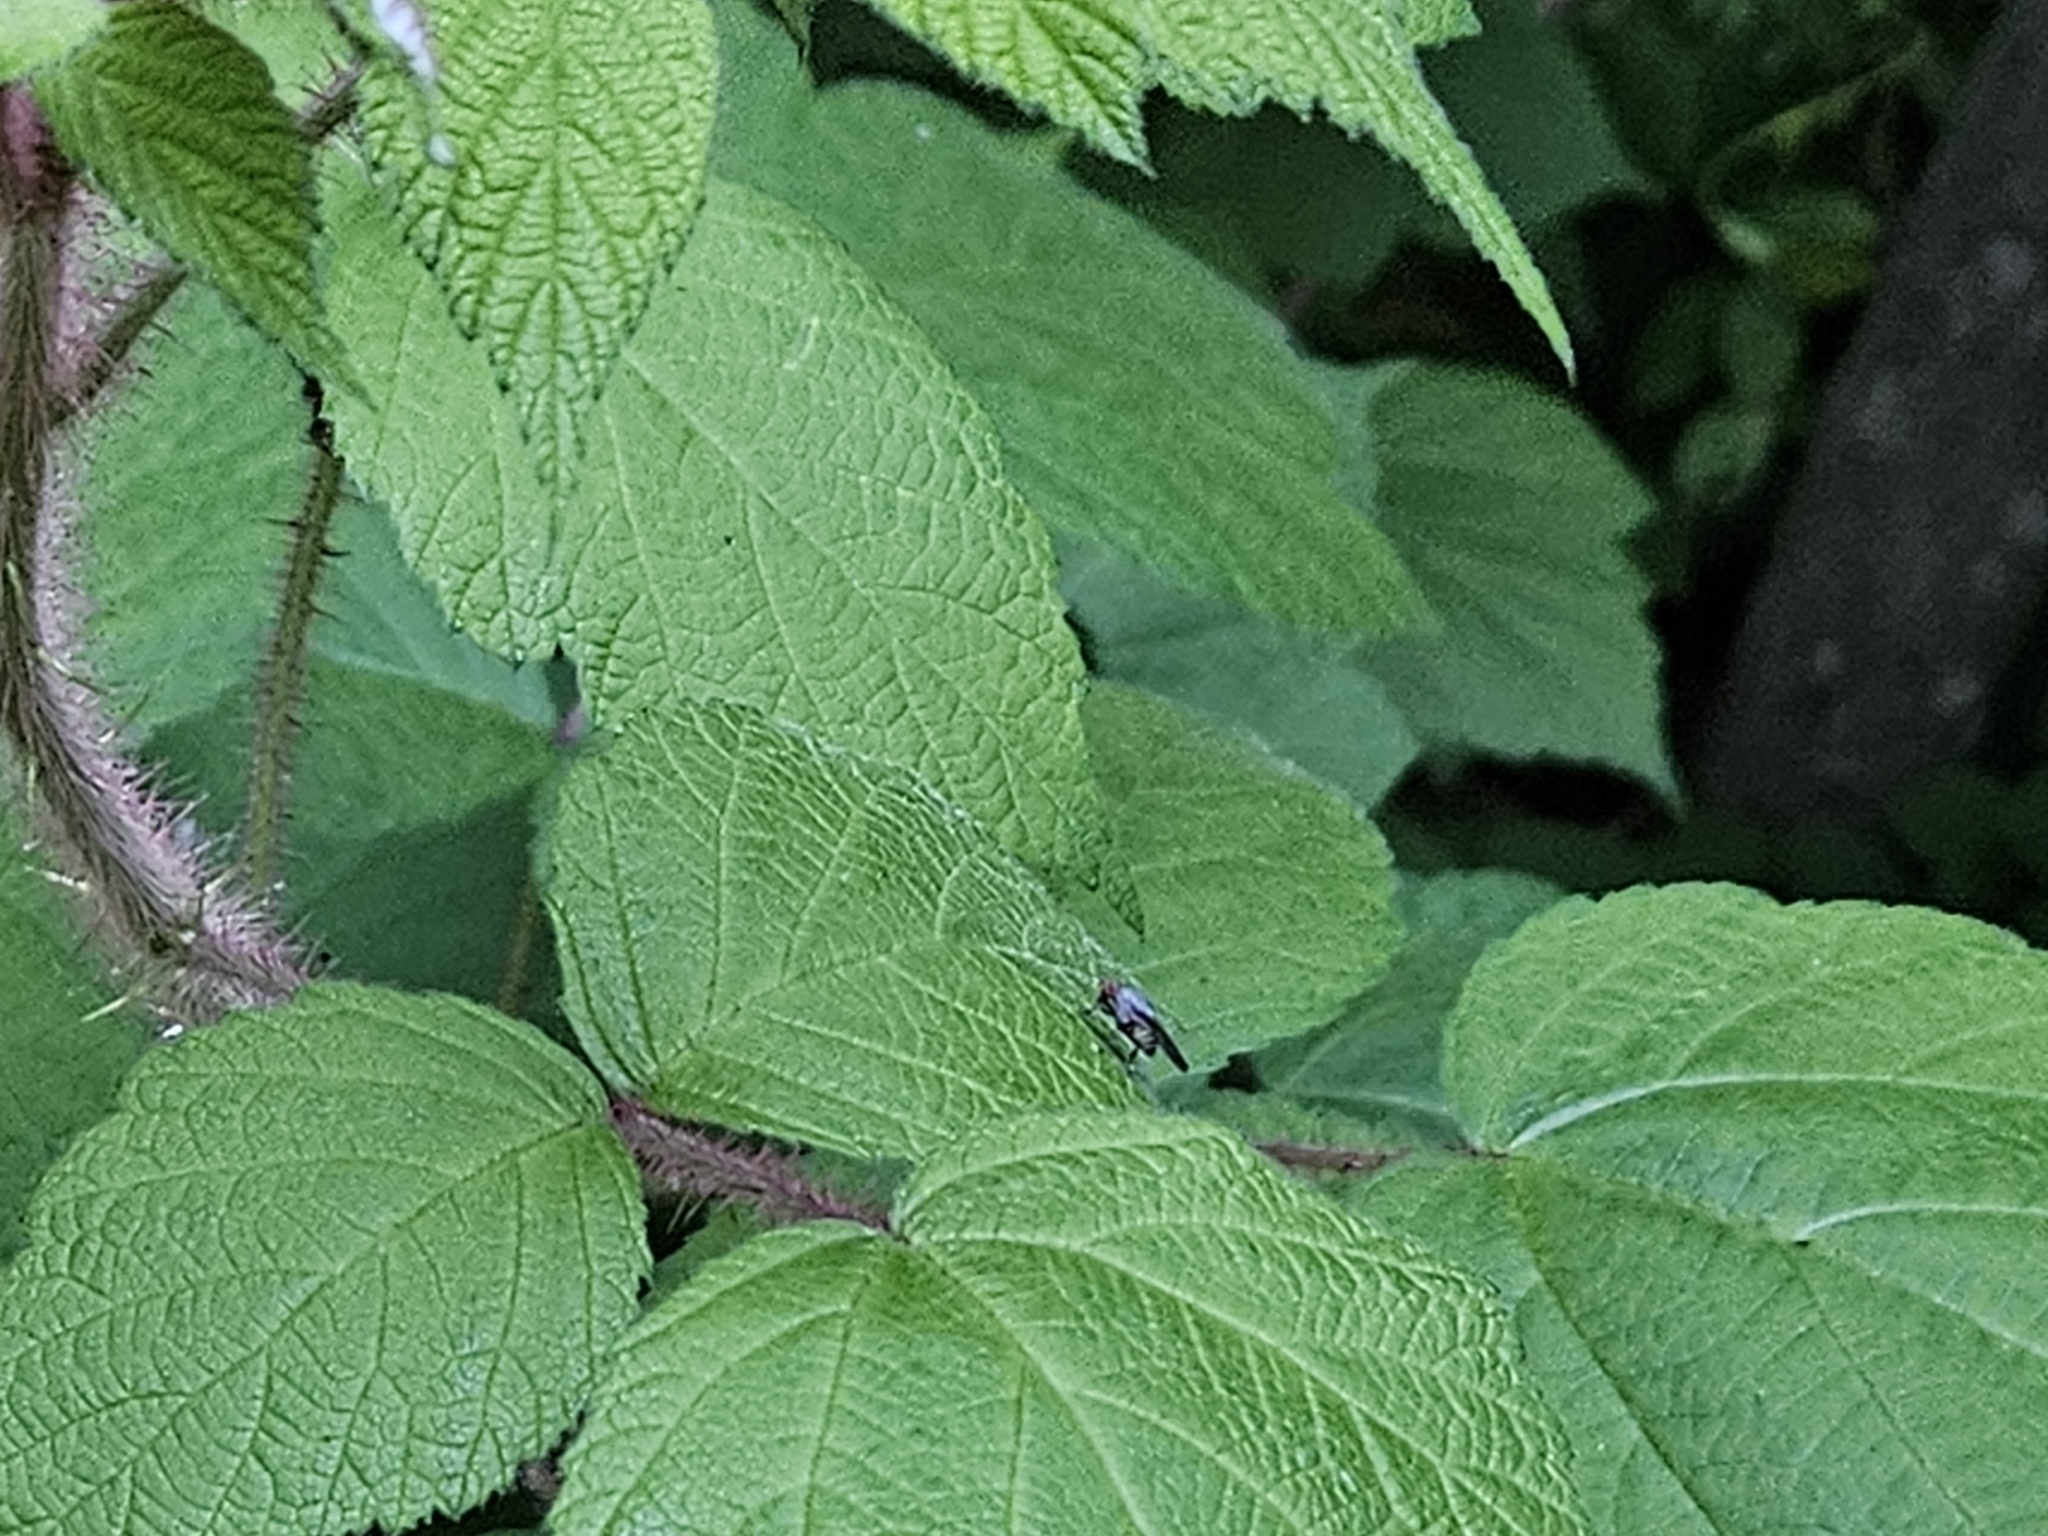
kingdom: Plantae
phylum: Tracheophyta
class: Magnoliopsida
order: Rosales
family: Rosaceae
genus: Rubus
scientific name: Rubus phoenicolasius
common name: Japanese wineberry
